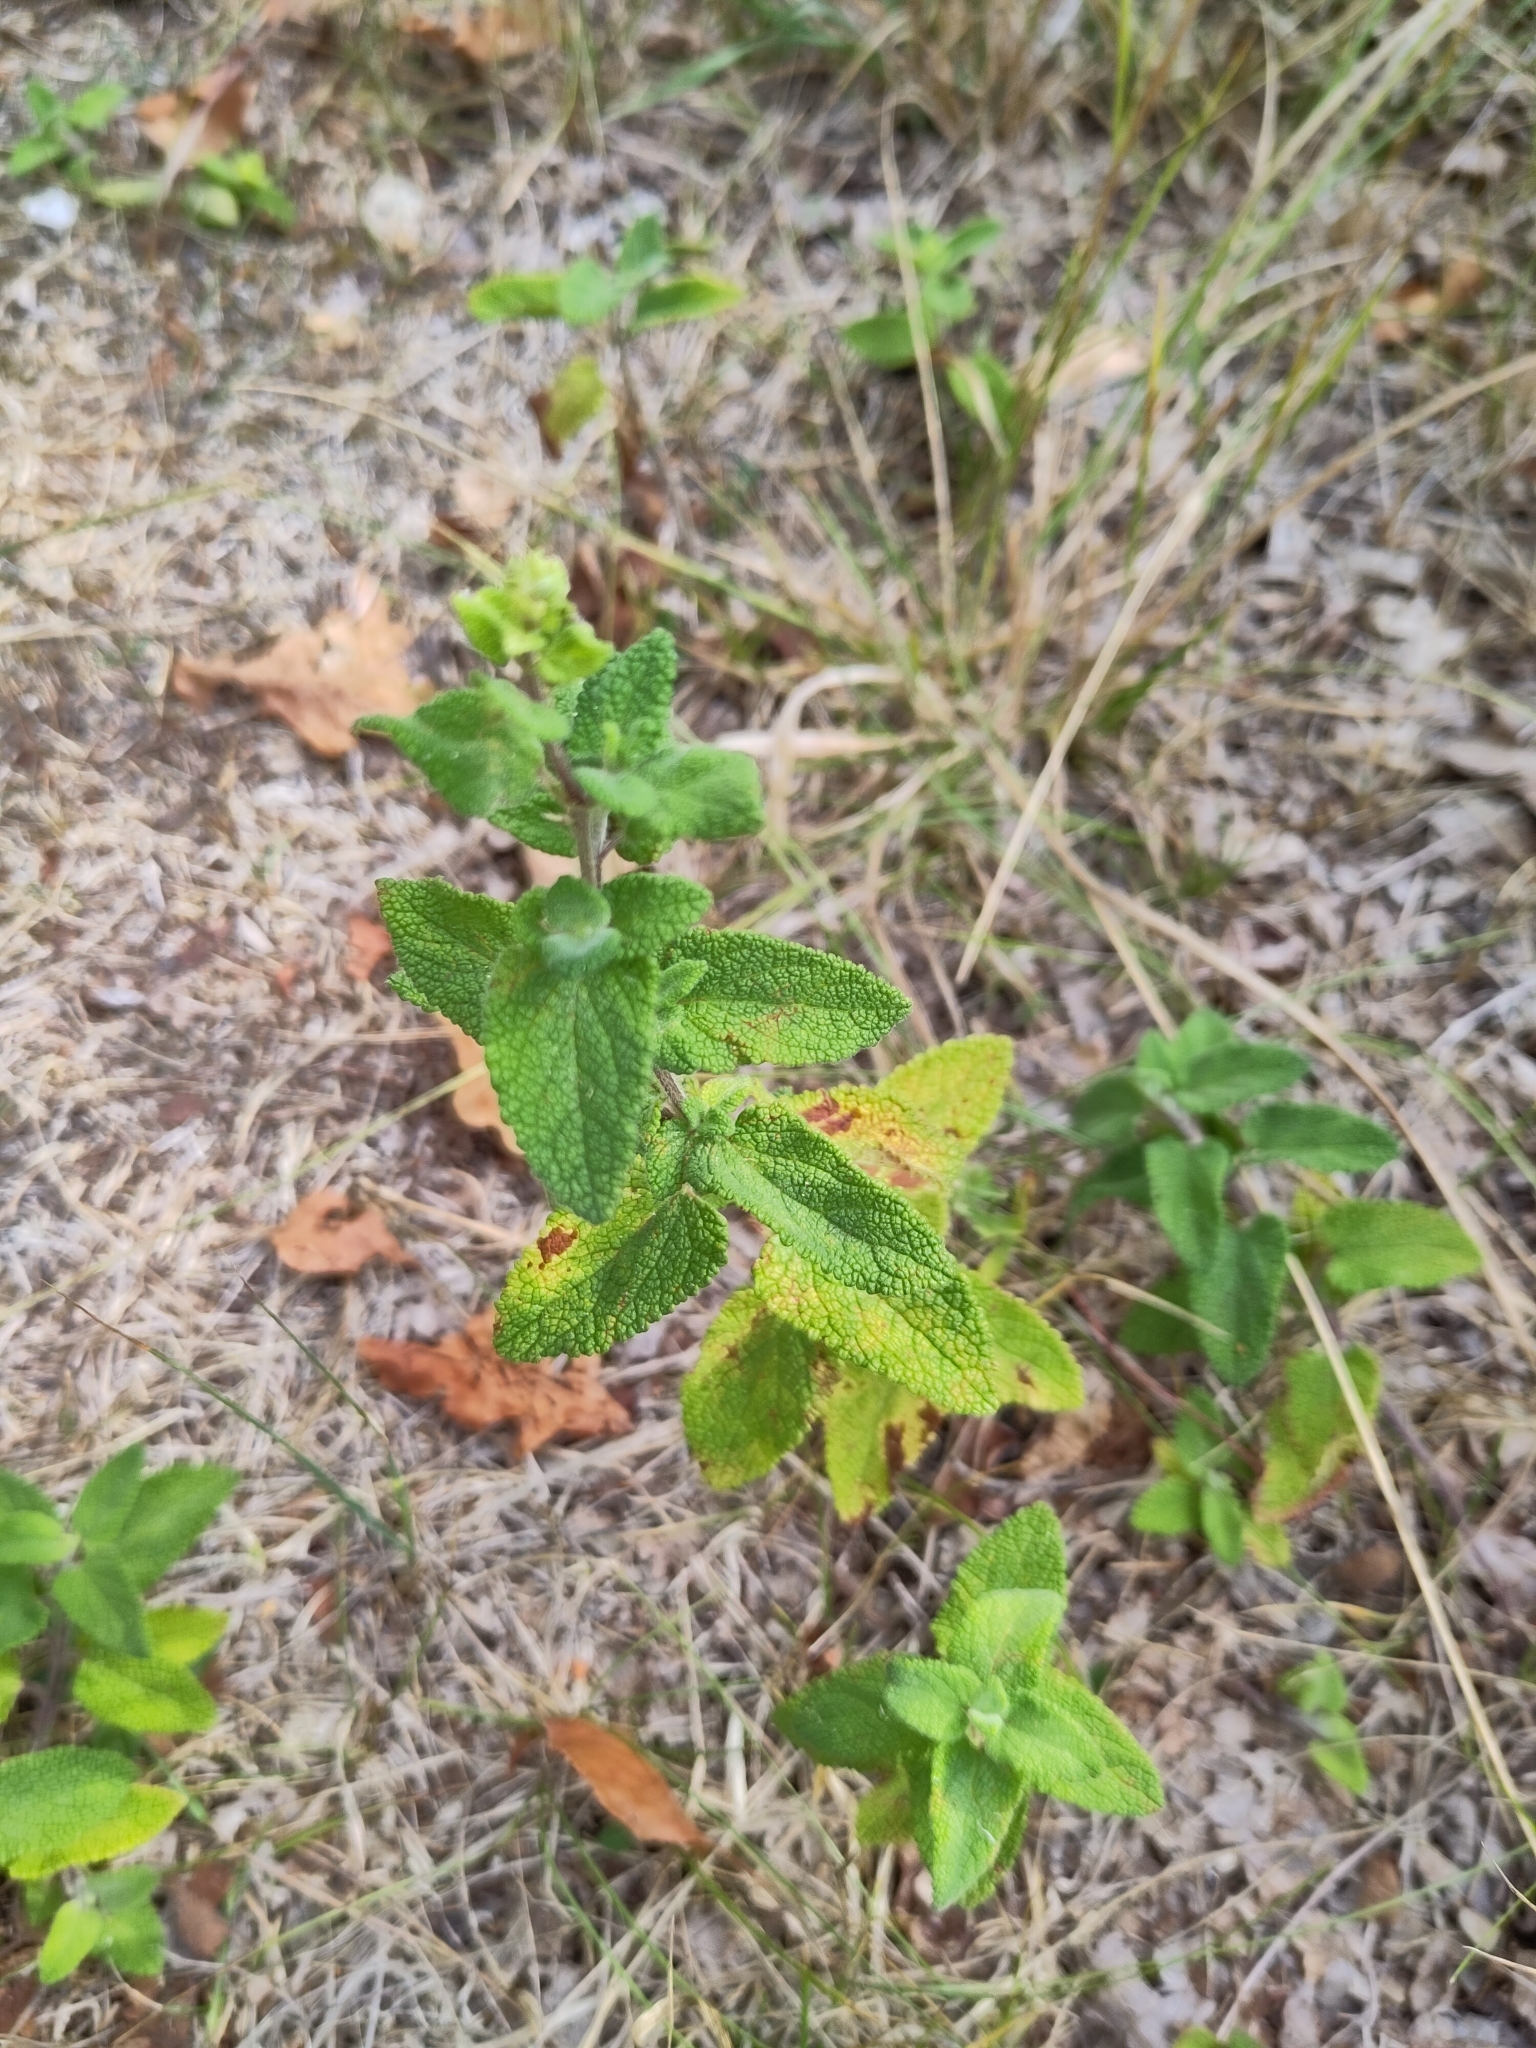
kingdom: Plantae
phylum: Tracheophyta
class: Magnoliopsida
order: Lamiales
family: Lamiaceae
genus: Teucrium
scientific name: Teucrium scorodonia
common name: Woodland germander
